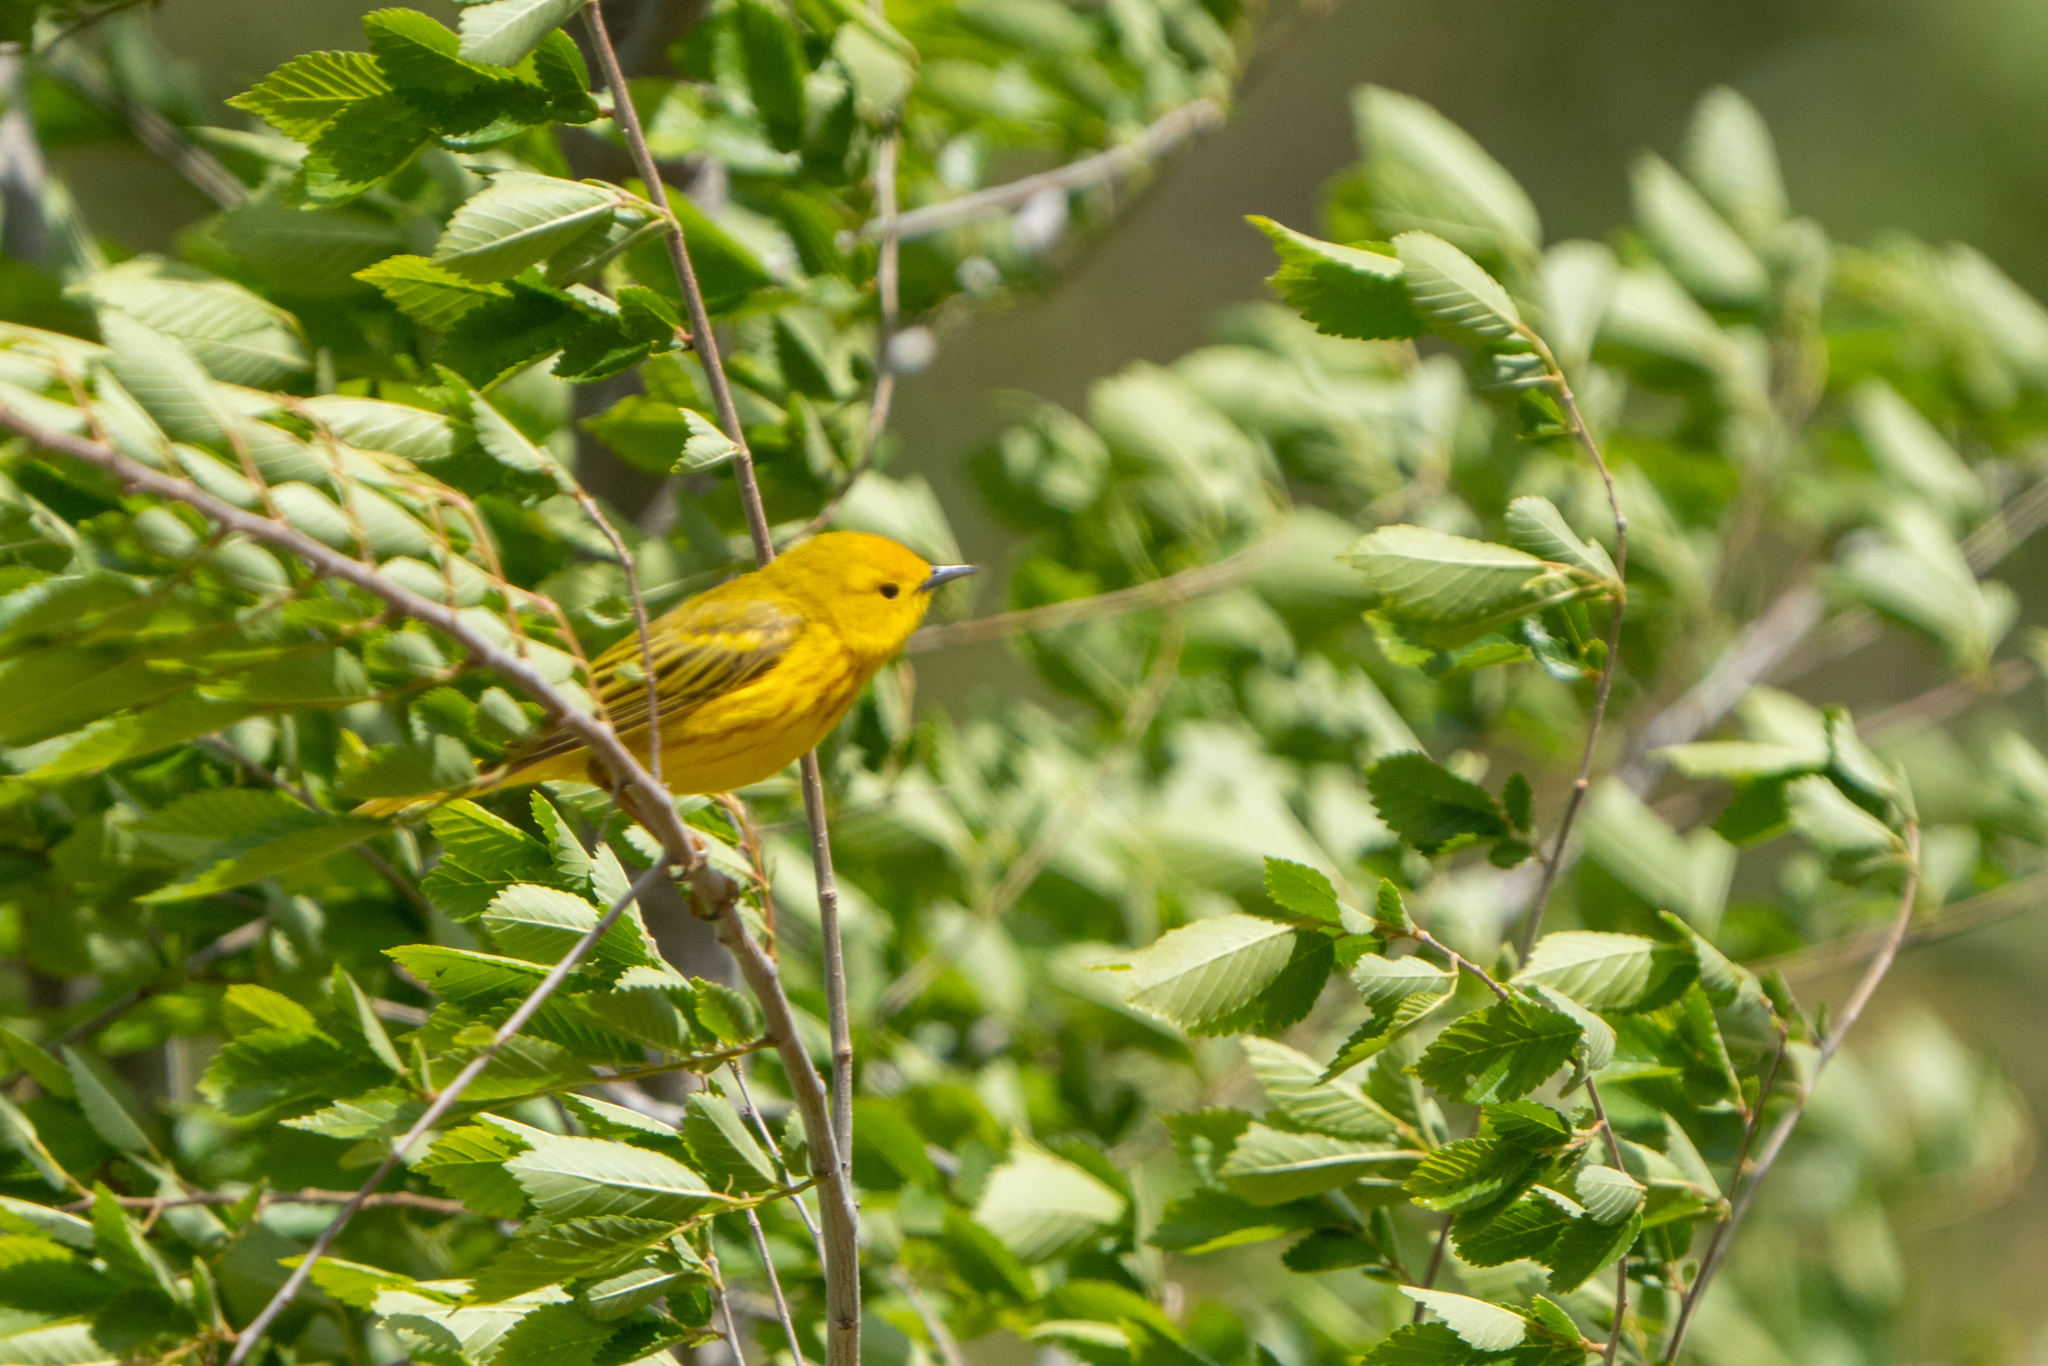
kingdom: Animalia
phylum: Chordata
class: Aves
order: Passeriformes
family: Parulidae
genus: Setophaga
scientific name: Setophaga petechia
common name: Yellow warbler
